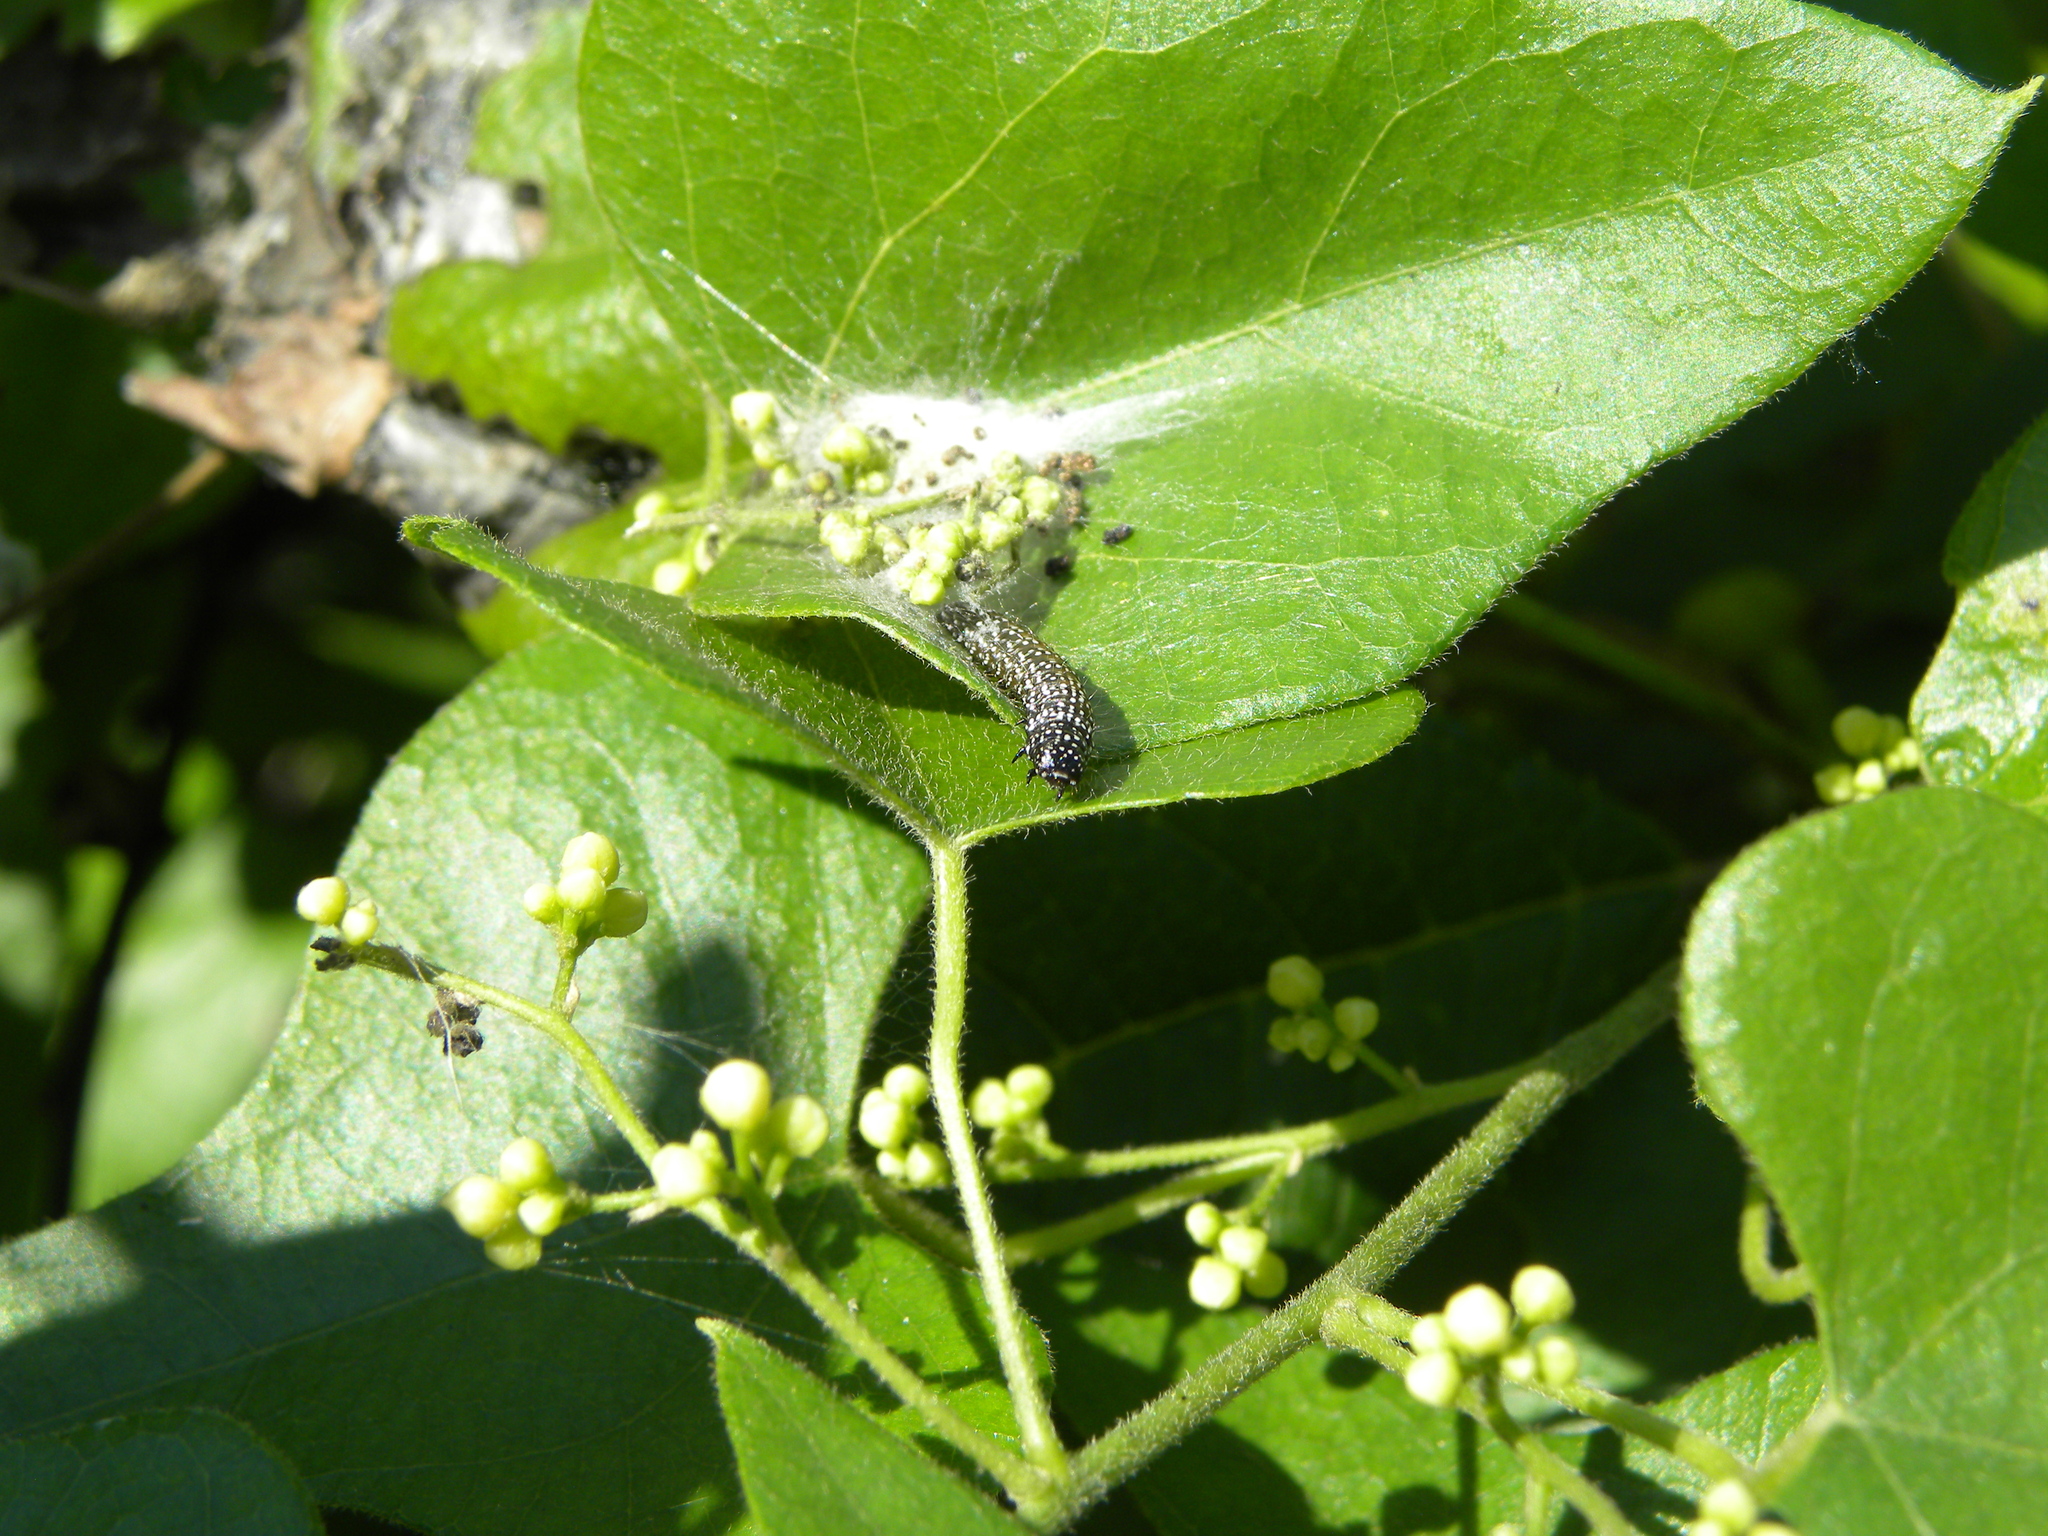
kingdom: Animalia
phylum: Arthropoda
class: Insecta
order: Lepidoptera
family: Pyralidae
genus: Omphalocera
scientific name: Omphalocera cariosa
